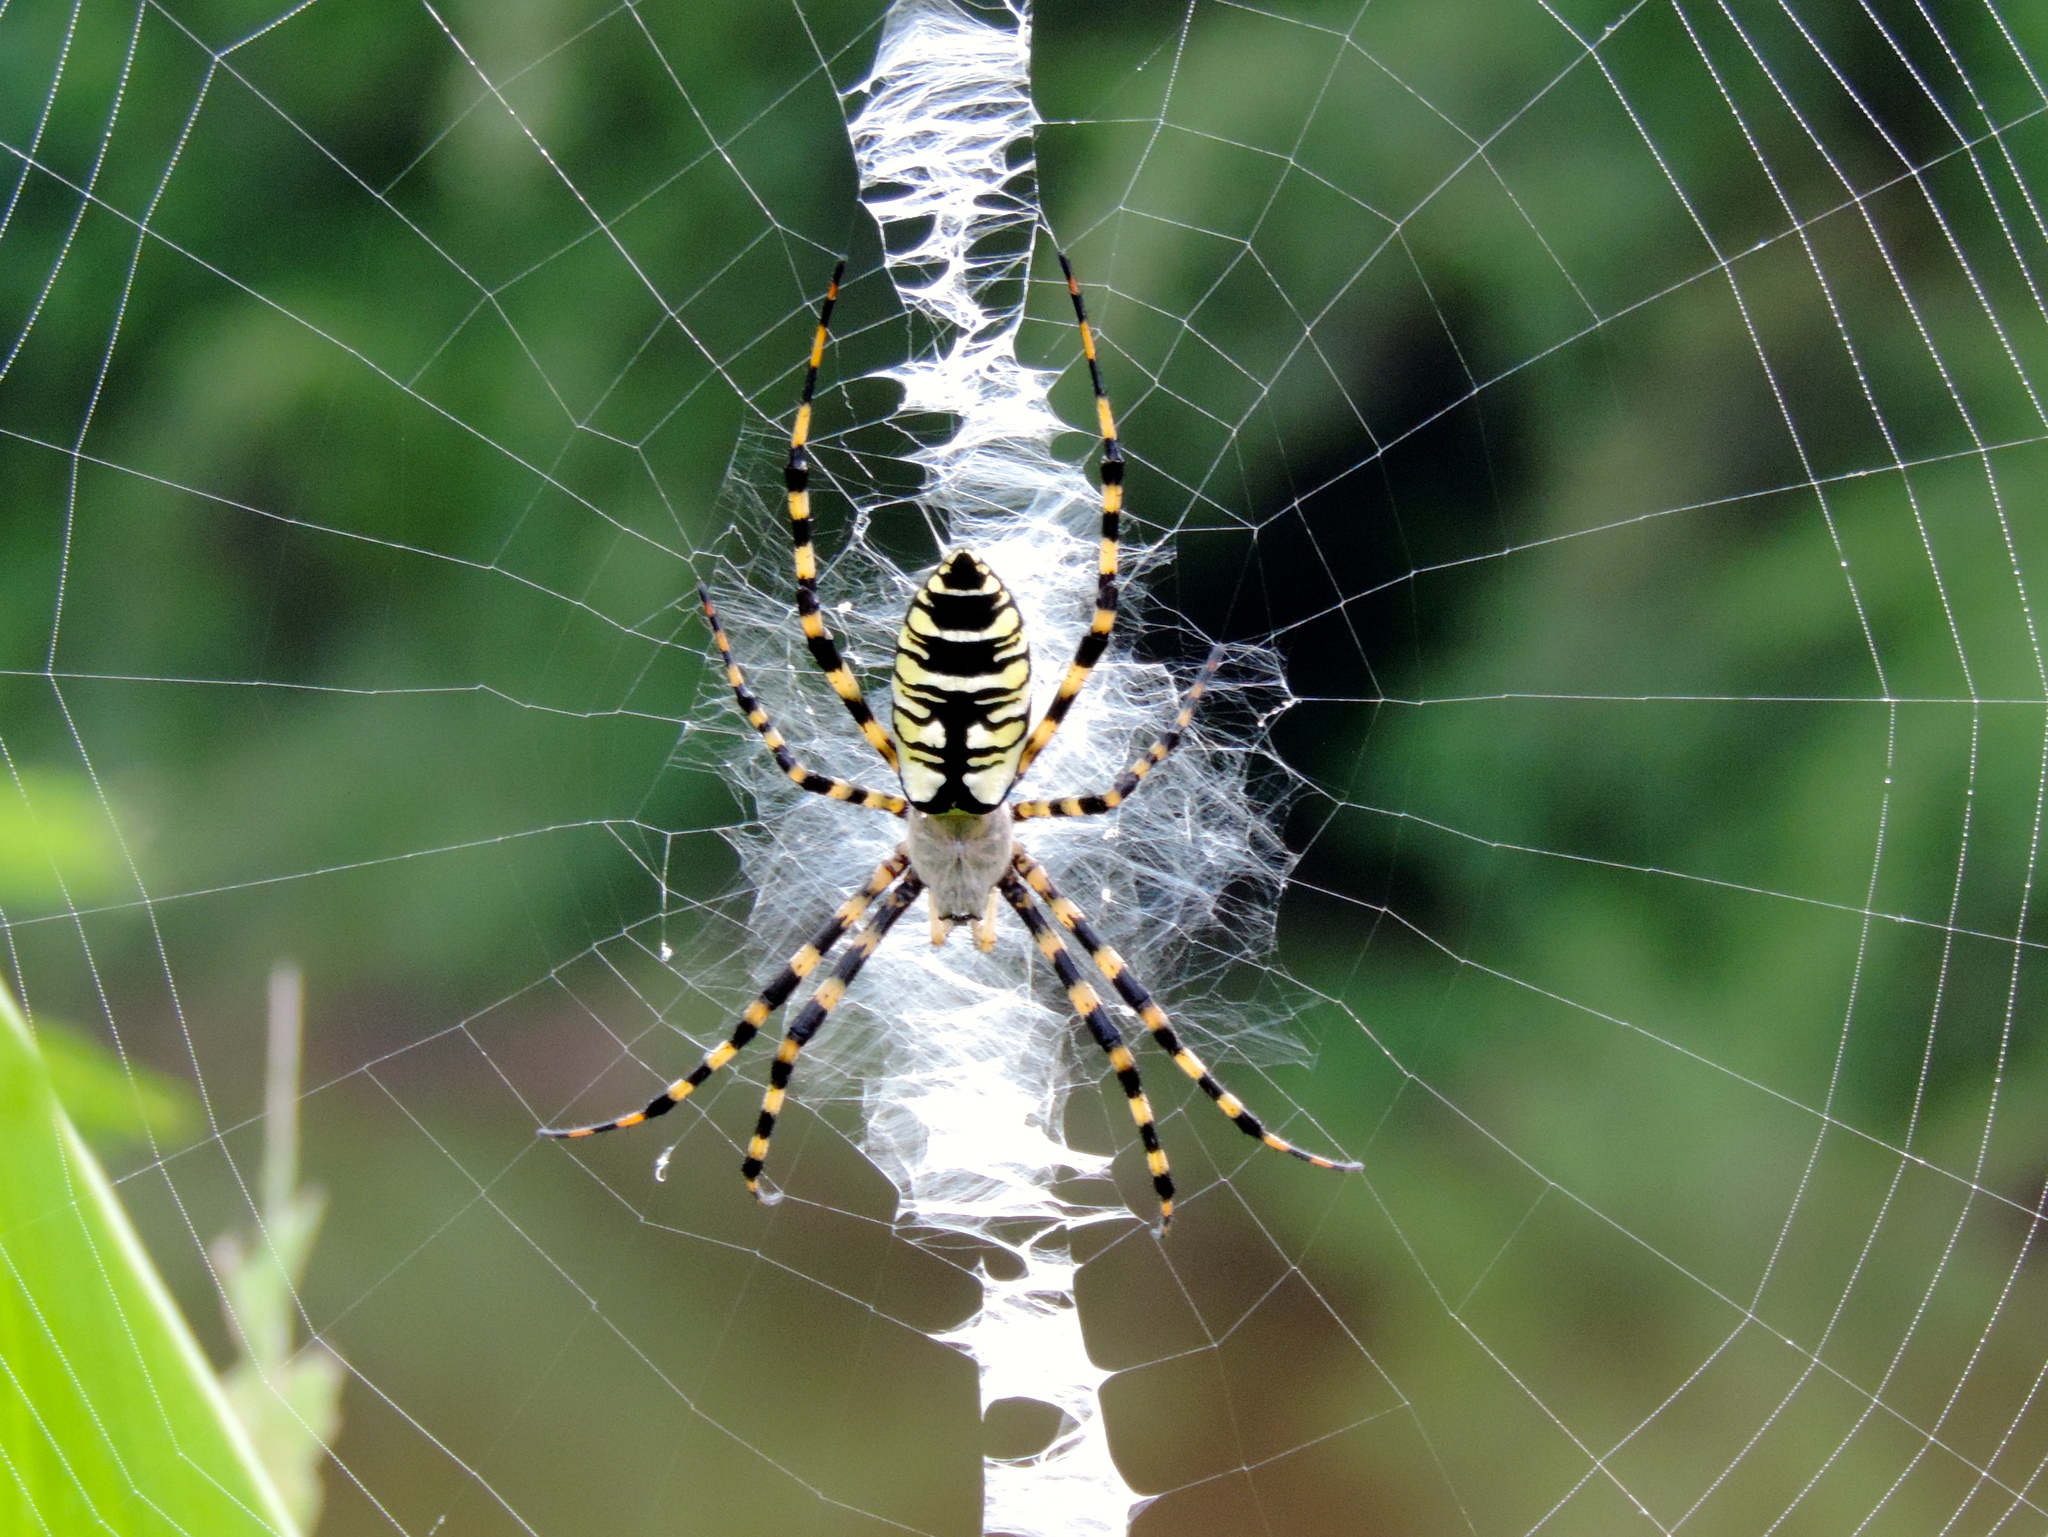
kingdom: Animalia
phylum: Arthropoda
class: Arachnida
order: Araneae
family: Araneidae
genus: Argiope
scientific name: Argiope aurantia
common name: Orb weavers
